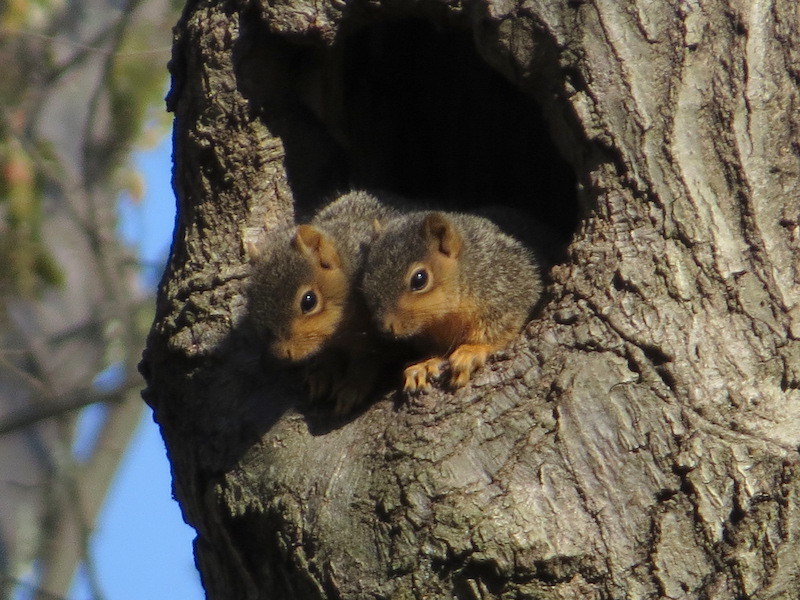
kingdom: Animalia
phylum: Chordata
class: Mammalia
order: Rodentia
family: Sciuridae
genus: Sciurus
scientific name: Sciurus niger
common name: Fox squirrel
